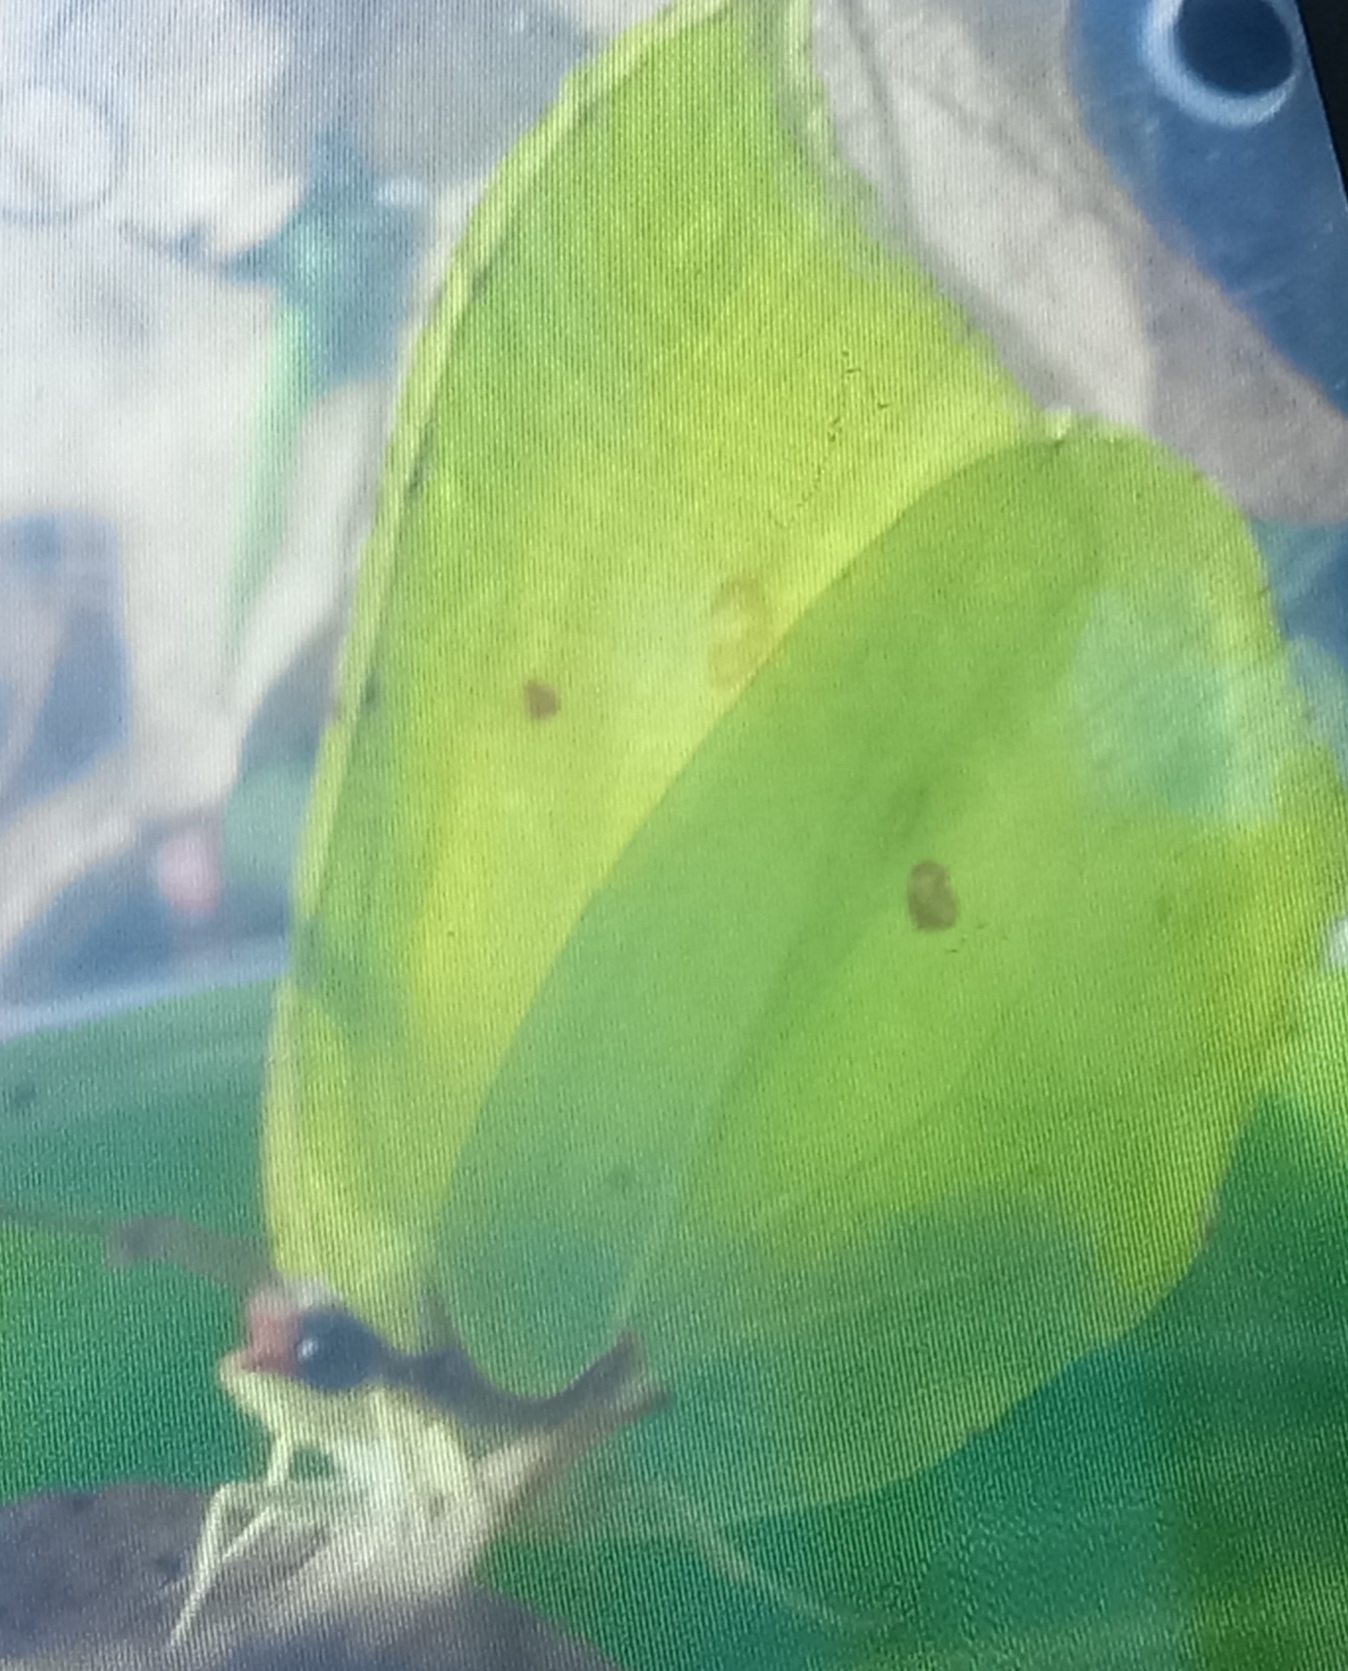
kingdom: Animalia
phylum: Arthropoda
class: Insecta
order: Lepidoptera
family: Pieridae
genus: Gonepteryx
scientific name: Gonepteryx rhamni
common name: Brimstone
